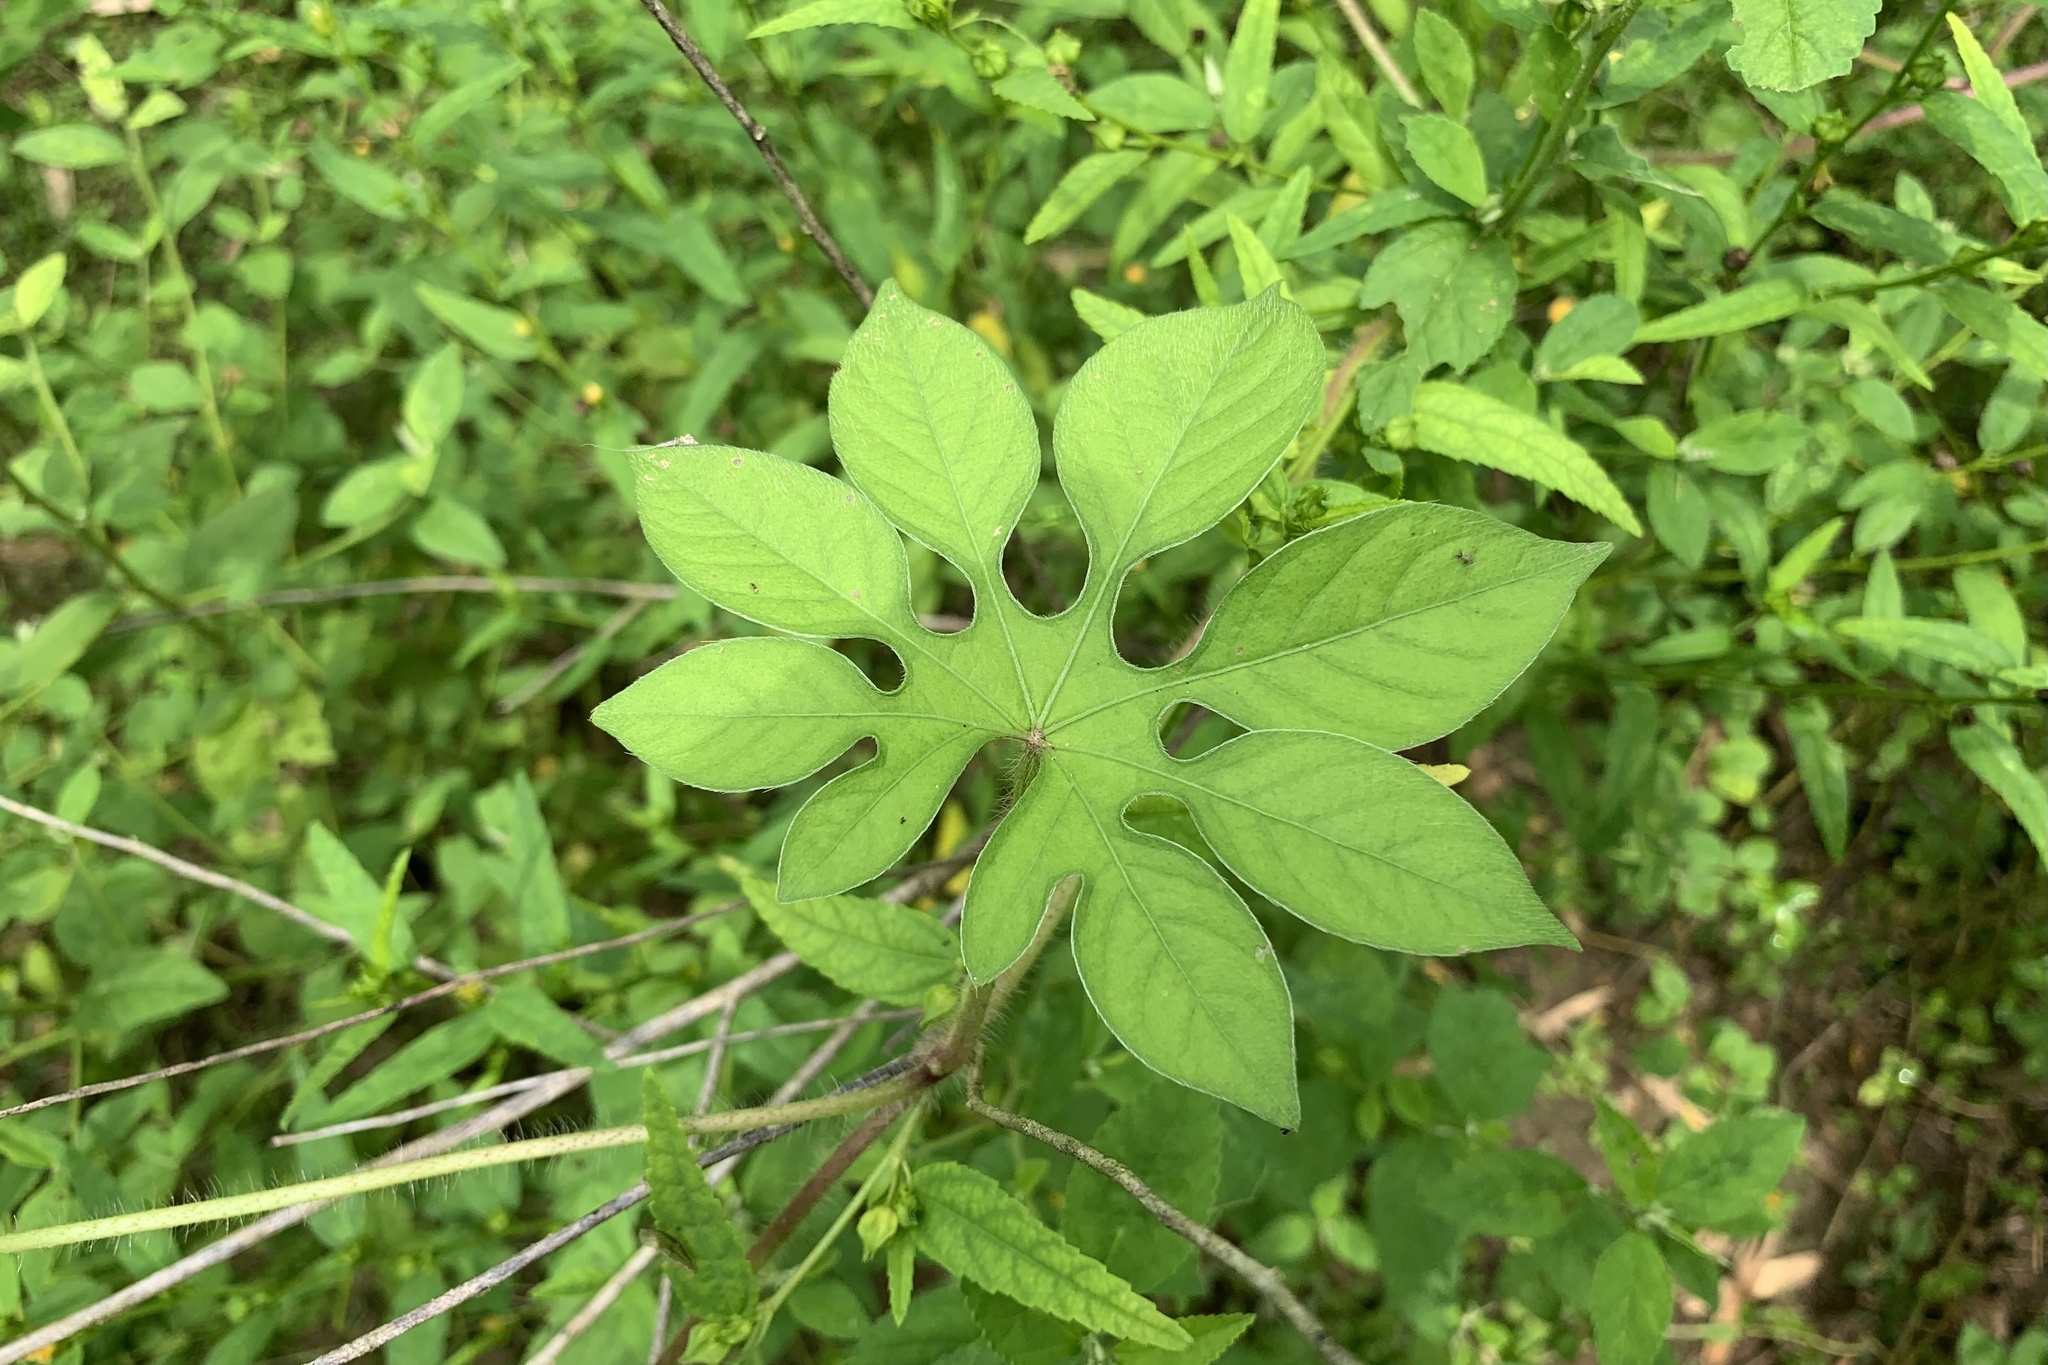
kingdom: Plantae
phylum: Tracheophyta
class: Magnoliopsida
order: Solanales
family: Convolvulaceae
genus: Ipomoea
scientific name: Ipomoea pes-tigridis
